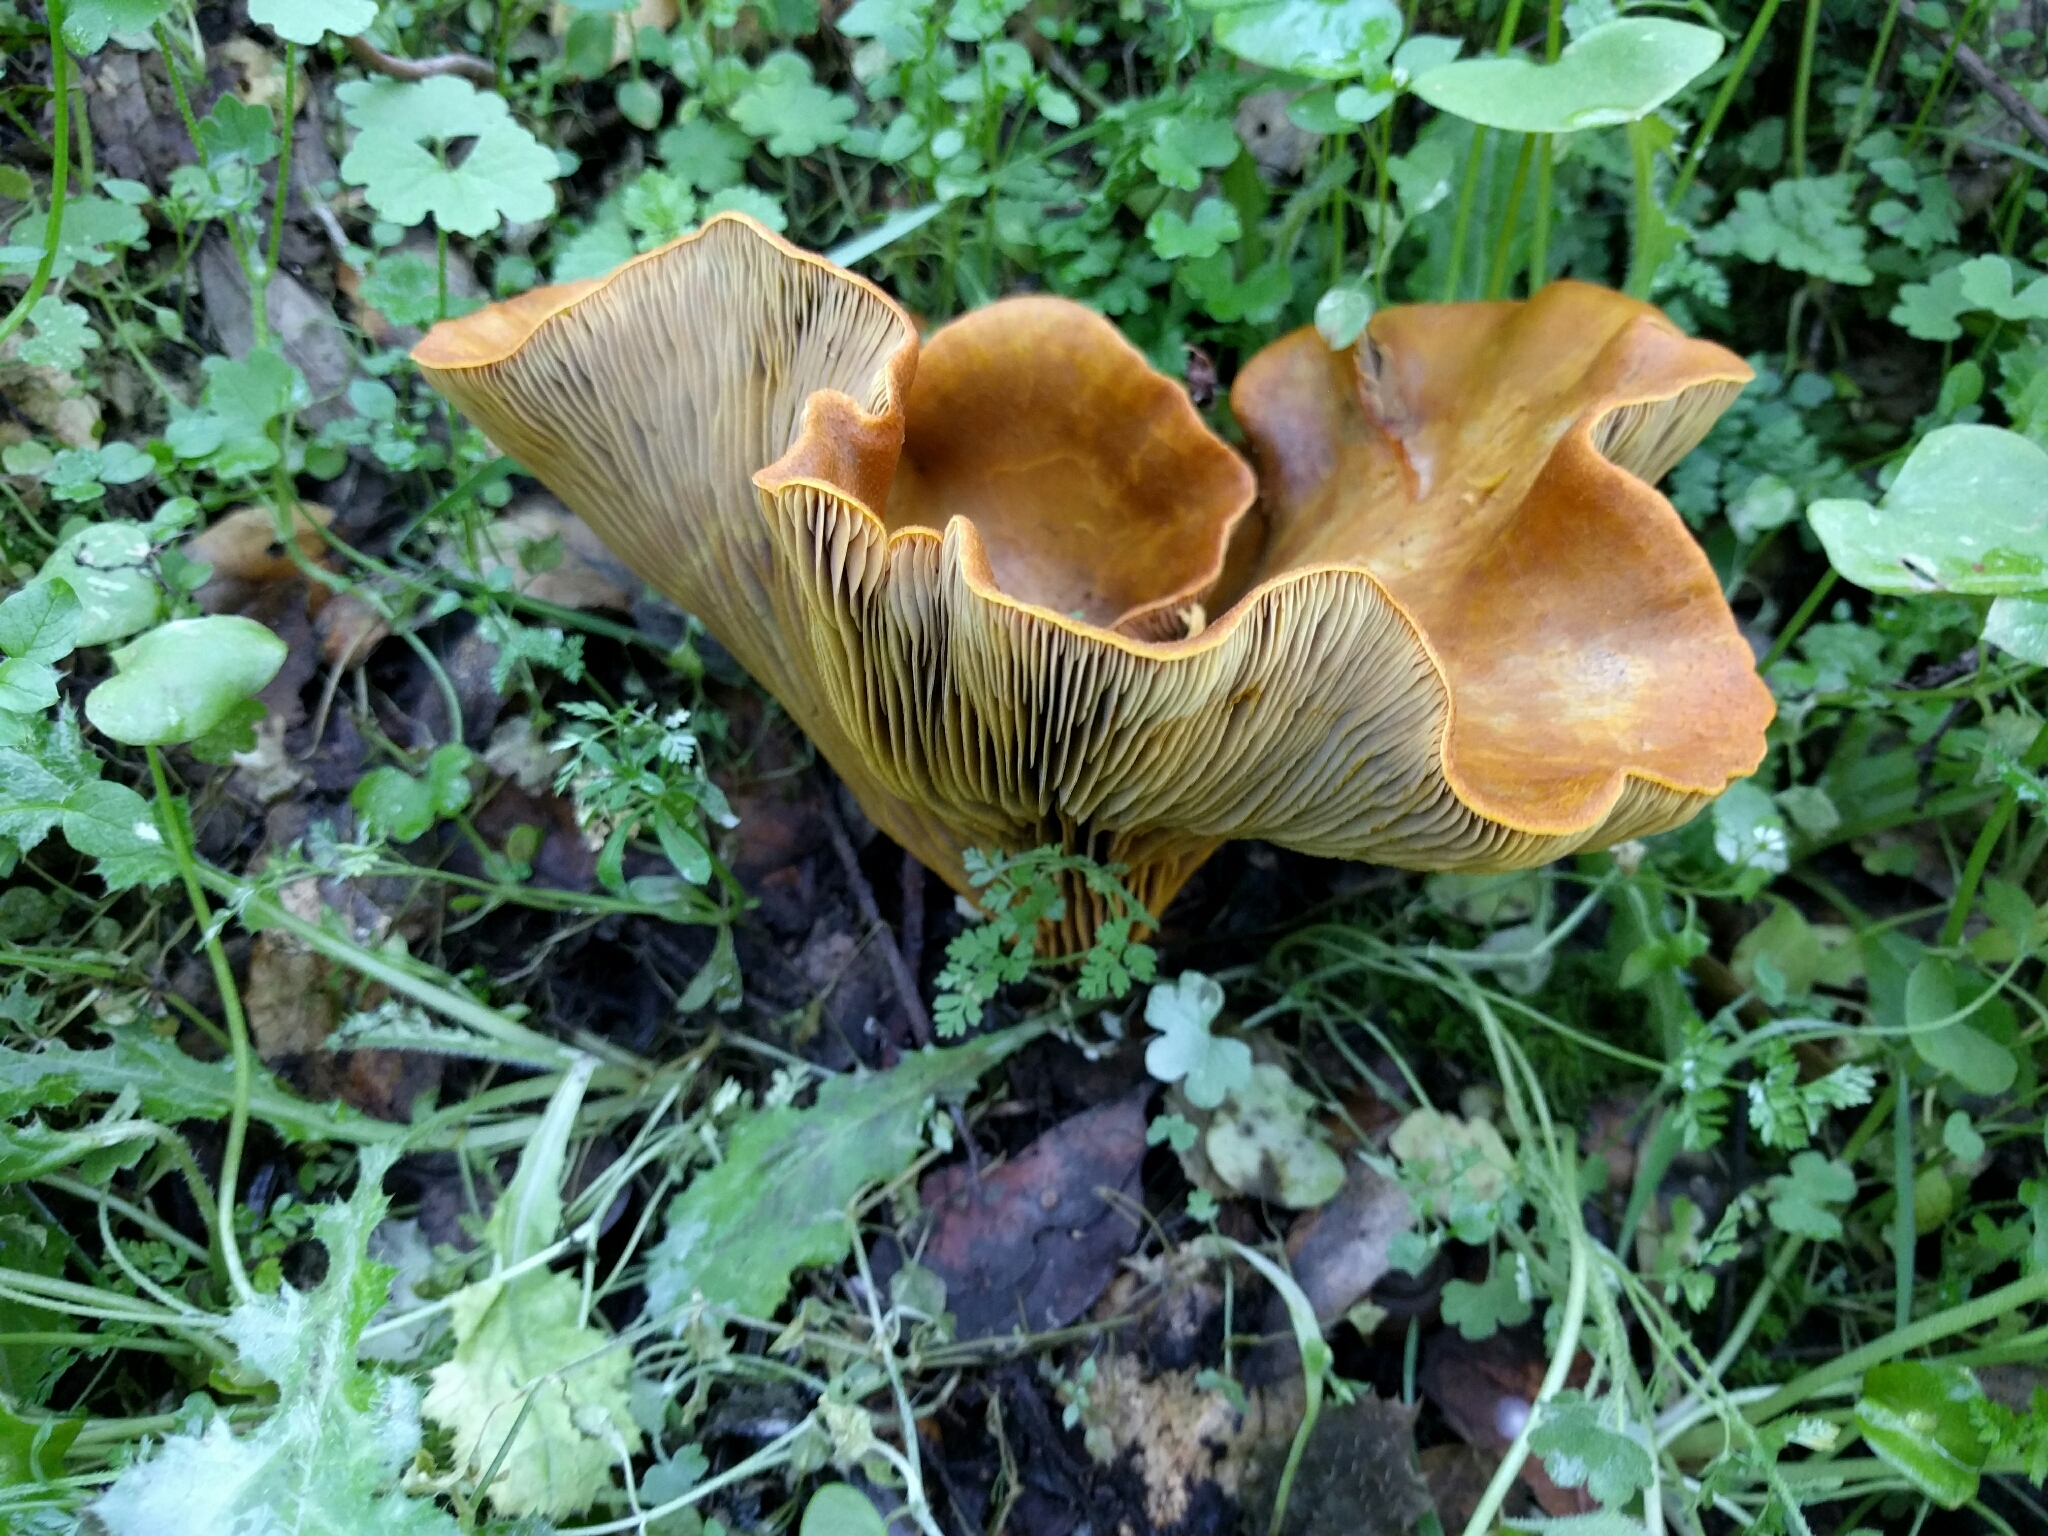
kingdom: Fungi
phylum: Basidiomycota
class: Agaricomycetes
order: Agaricales
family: Omphalotaceae
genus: Omphalotus
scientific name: Omphalotus olivascens
